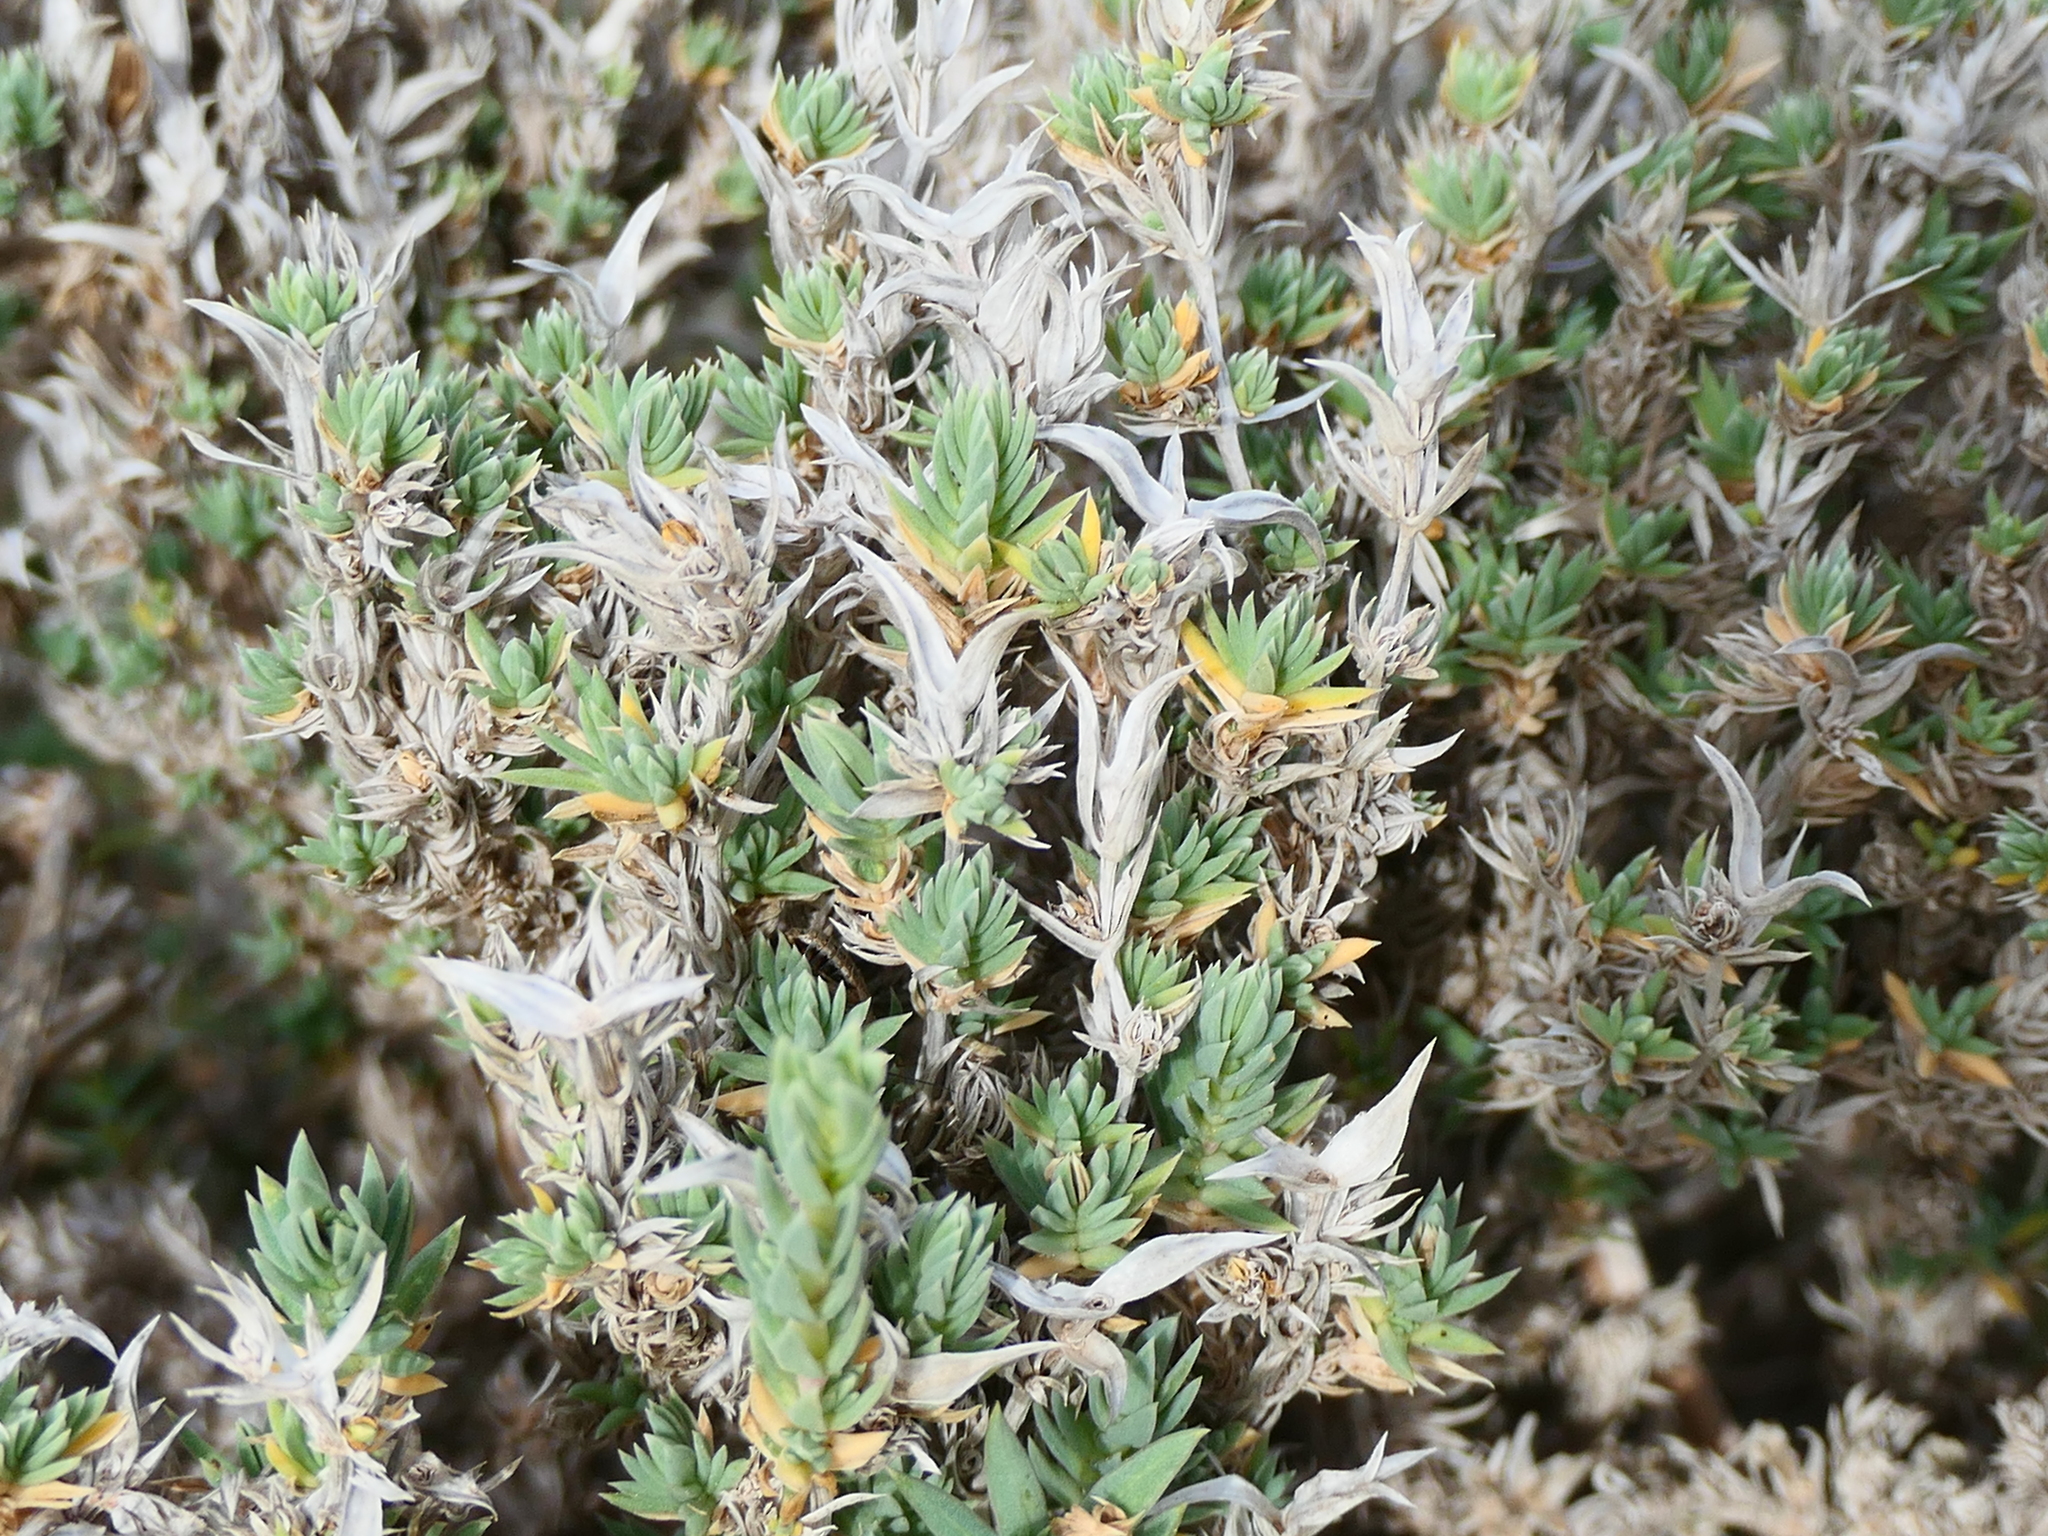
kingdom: Plantae
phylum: Tracheophyta
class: Magnoliopsida
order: Gentianales
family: Rubiaceae
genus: Crucianella
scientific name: Crucianella maritima
